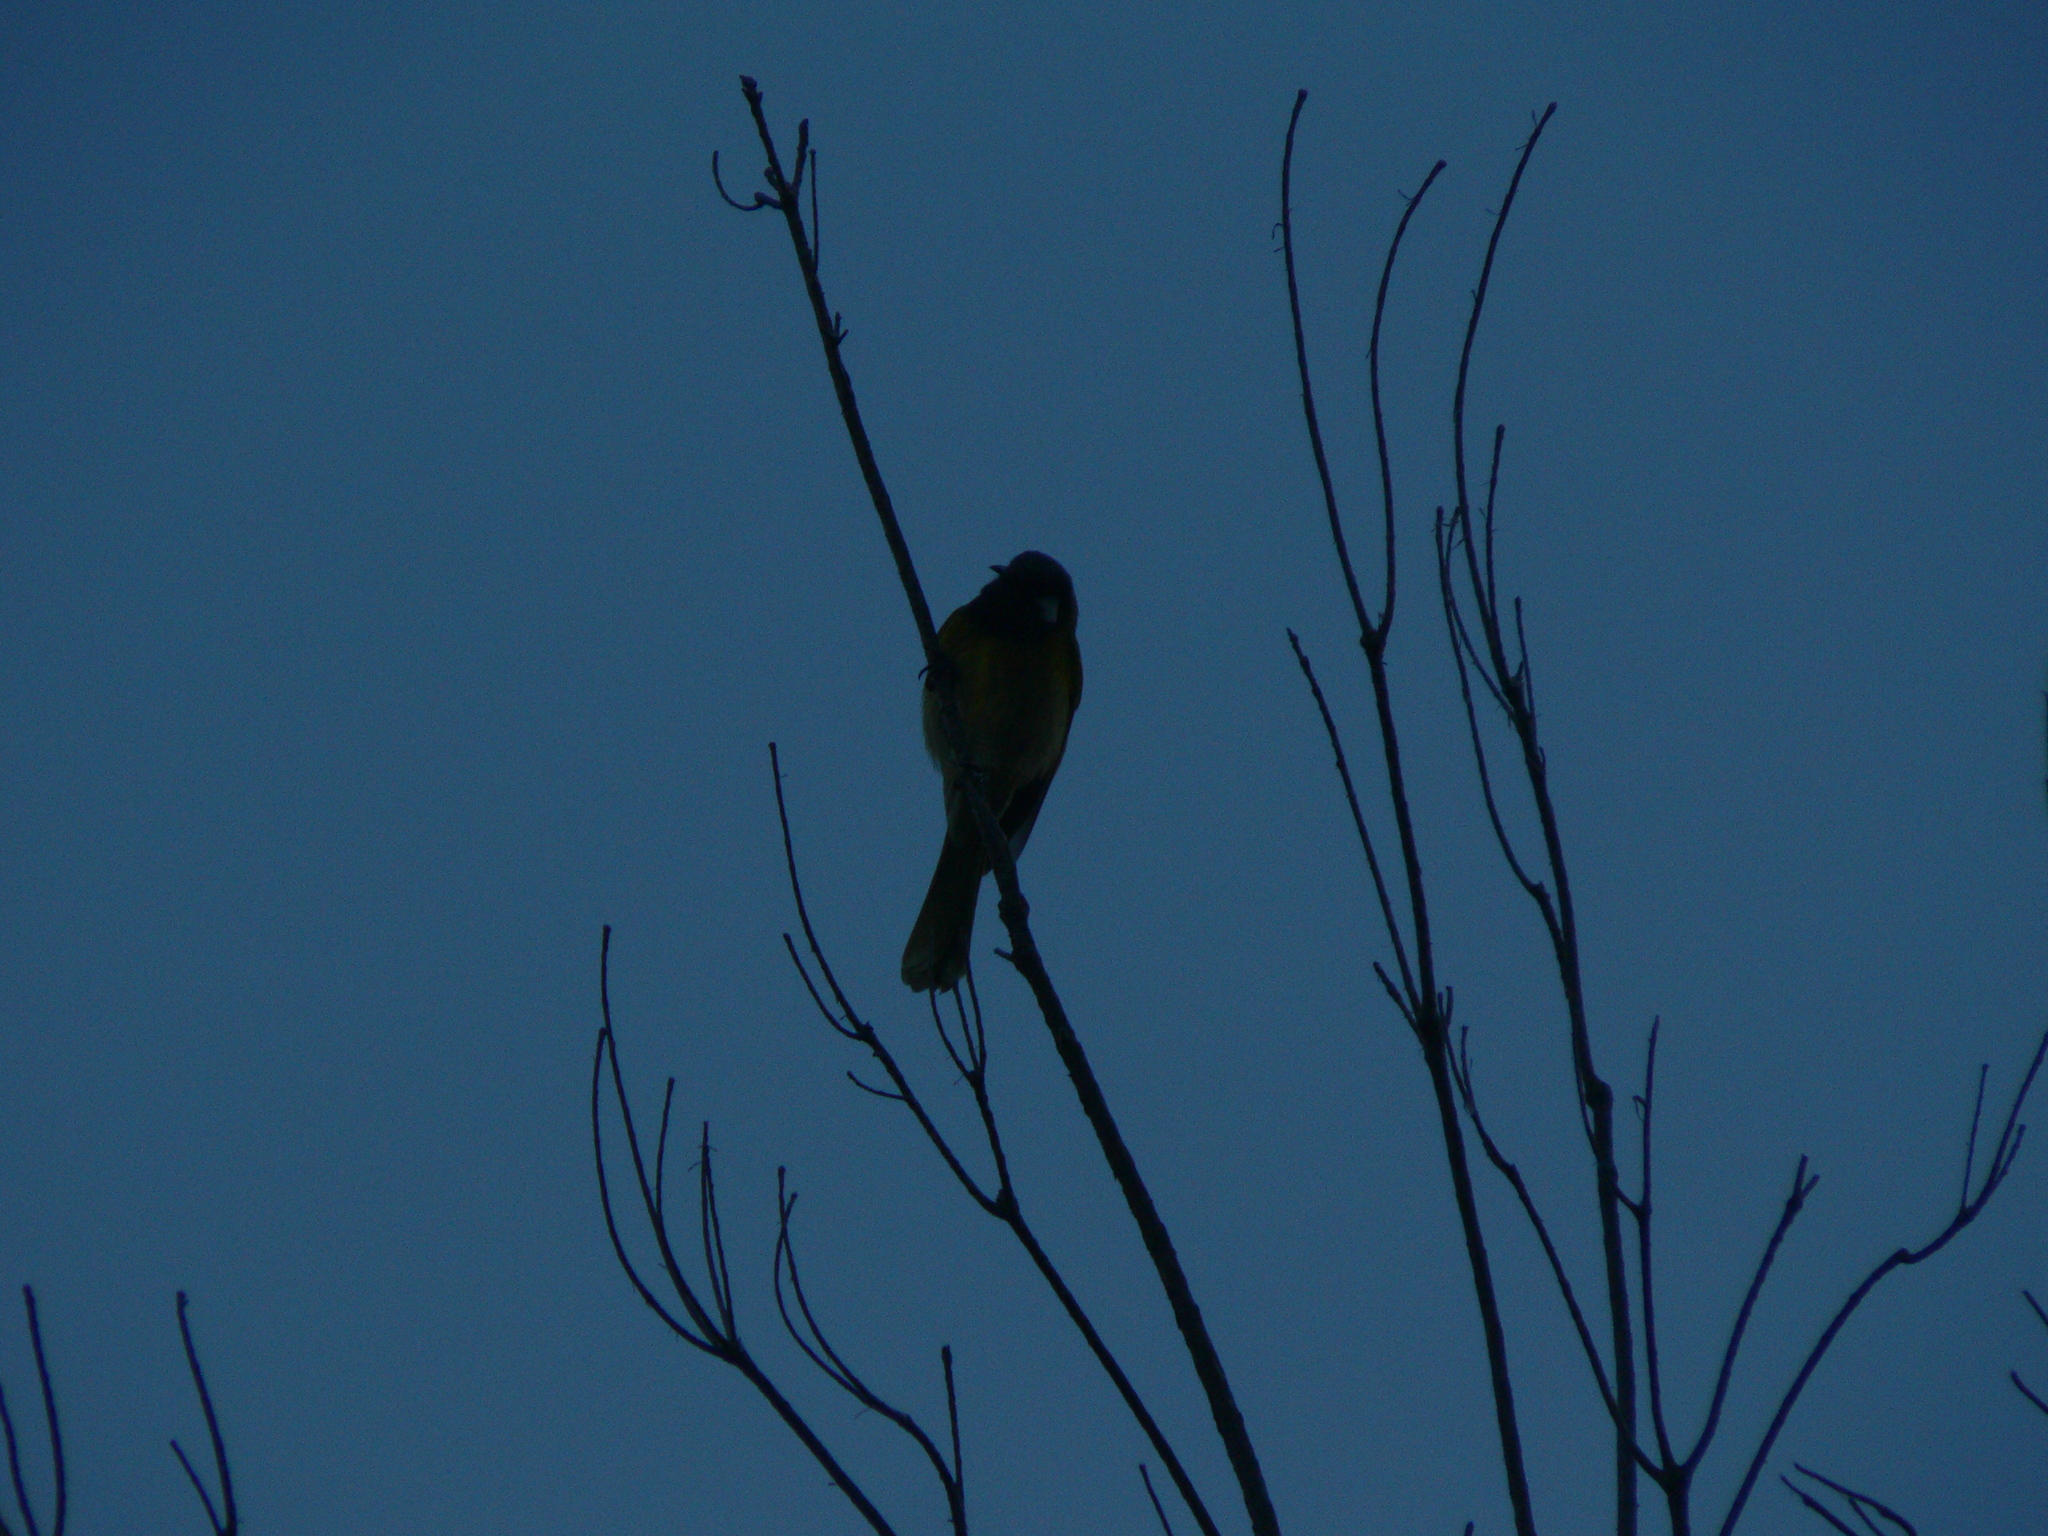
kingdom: Animalia
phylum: Chordata
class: Aves
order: Passeriformes
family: Meliphagidae
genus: Nesoptilotis
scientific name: Nesoptilotis leucotis
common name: White-eared honeyeater
